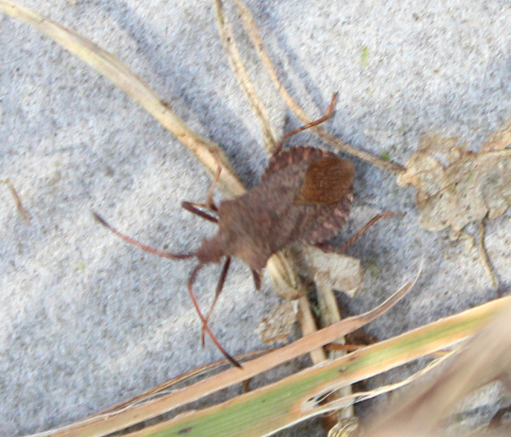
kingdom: Animalia
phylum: Arthropoda
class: Insecta
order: Hemiptera
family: Coreidae
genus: Coreus
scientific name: Coreus marginatus
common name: Dock bug
